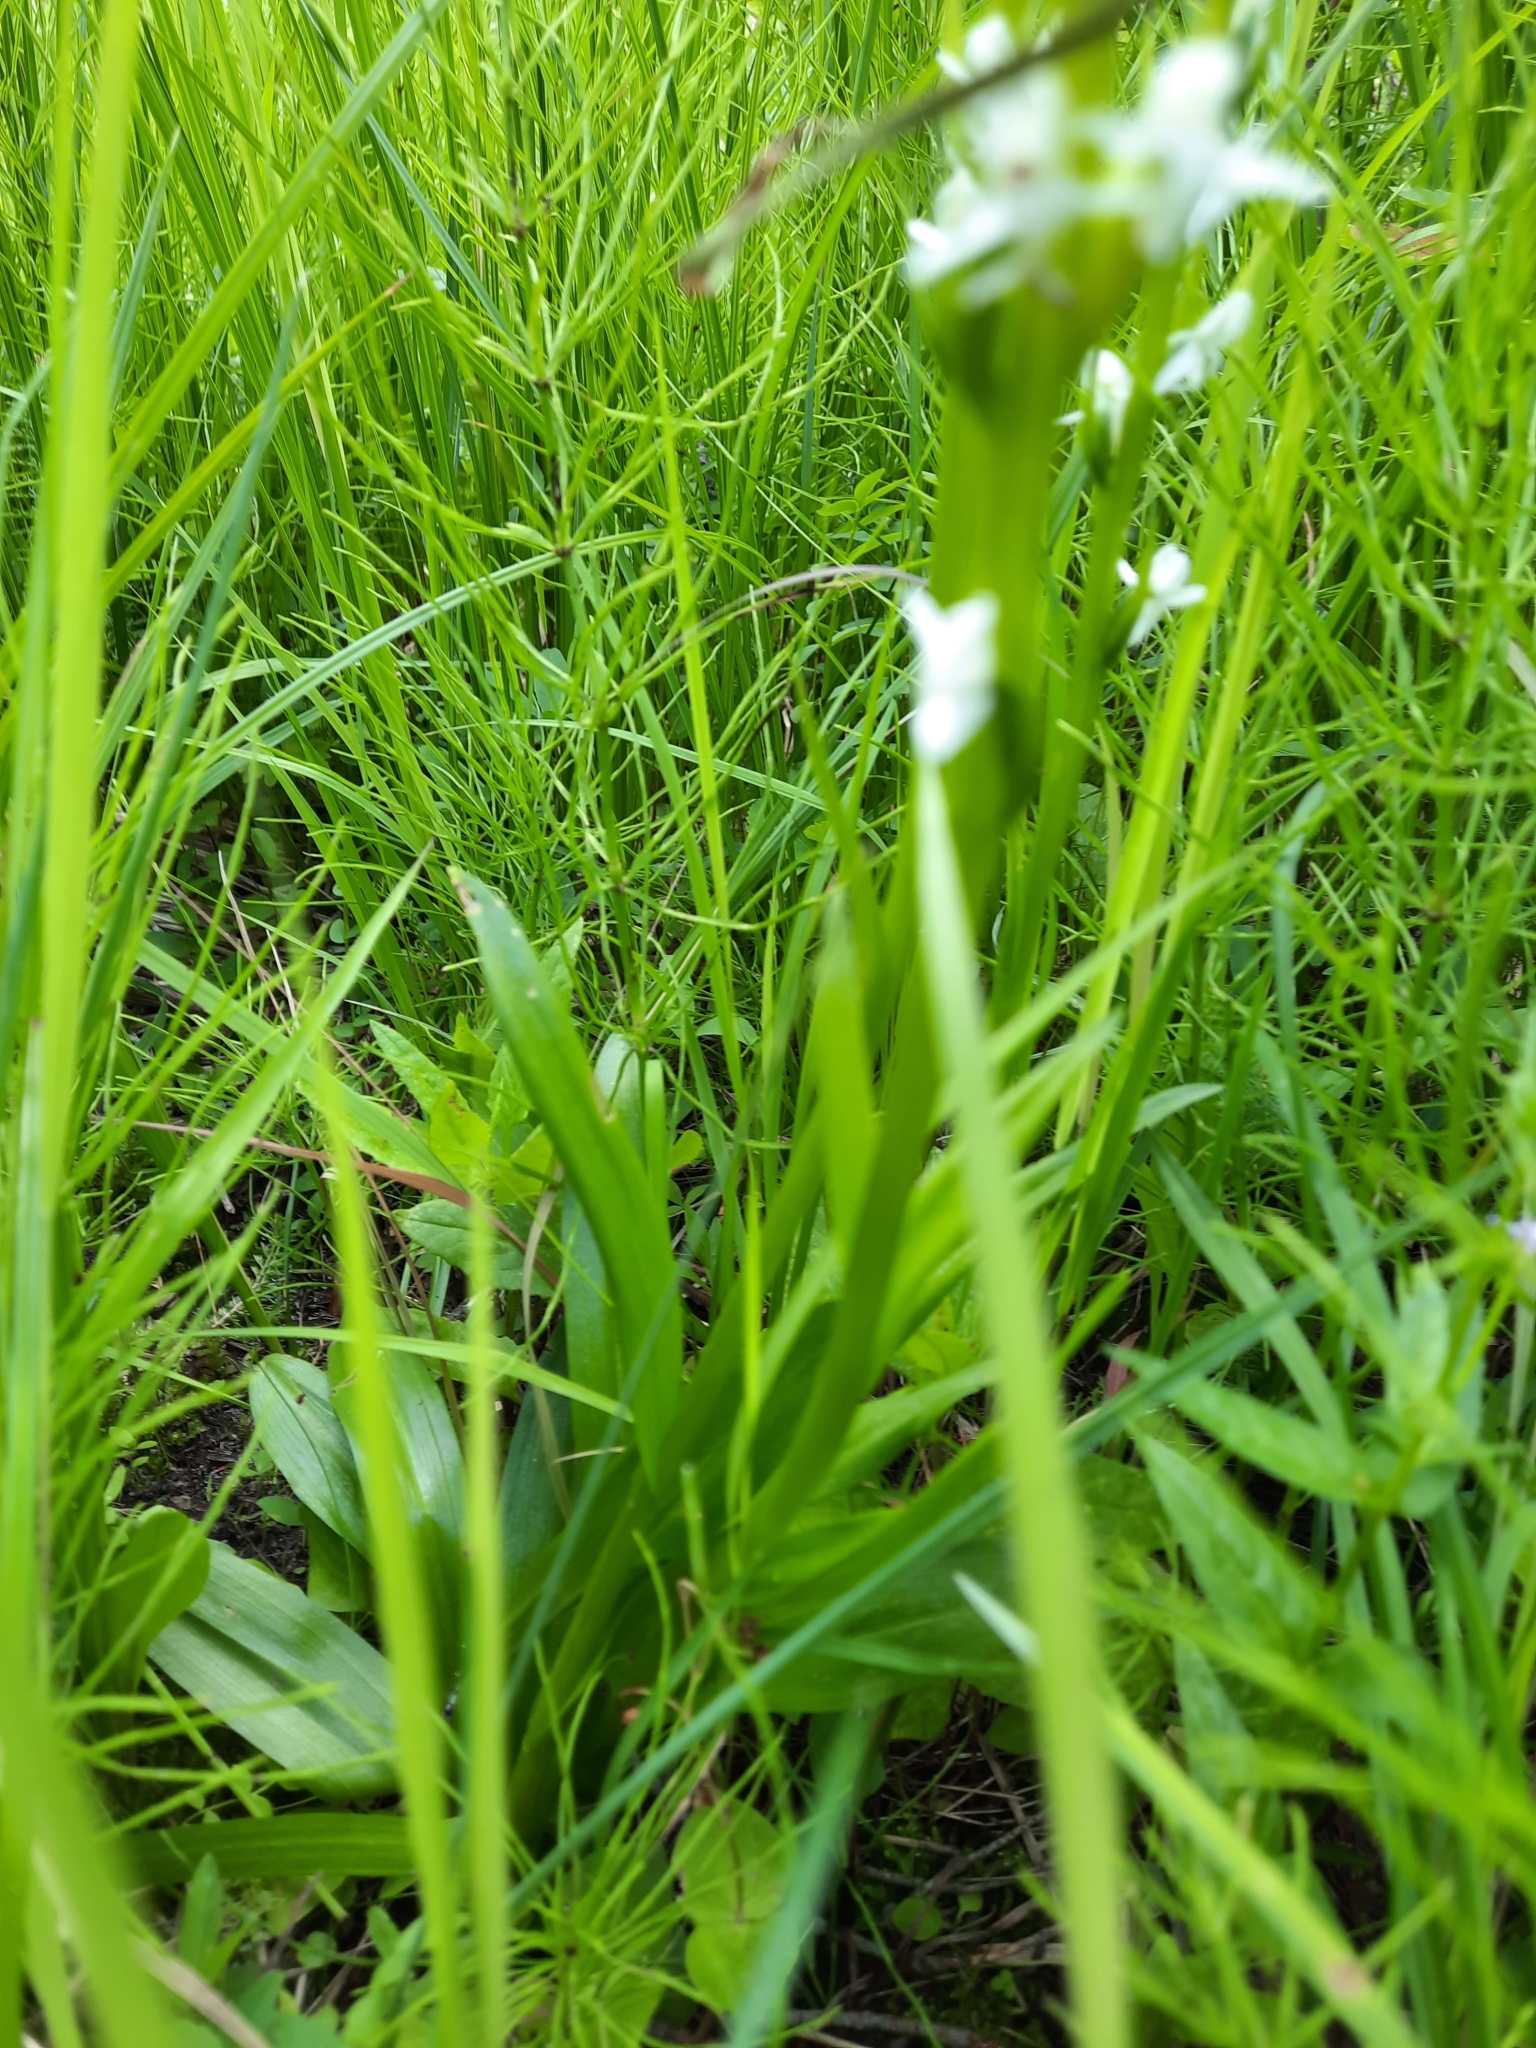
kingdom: Plantae
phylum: Tracheophyta
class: Liliopsida
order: Asparagales
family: Orchidaceae
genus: Platanthera
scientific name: Platanthera dilatata
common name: Bog candles
